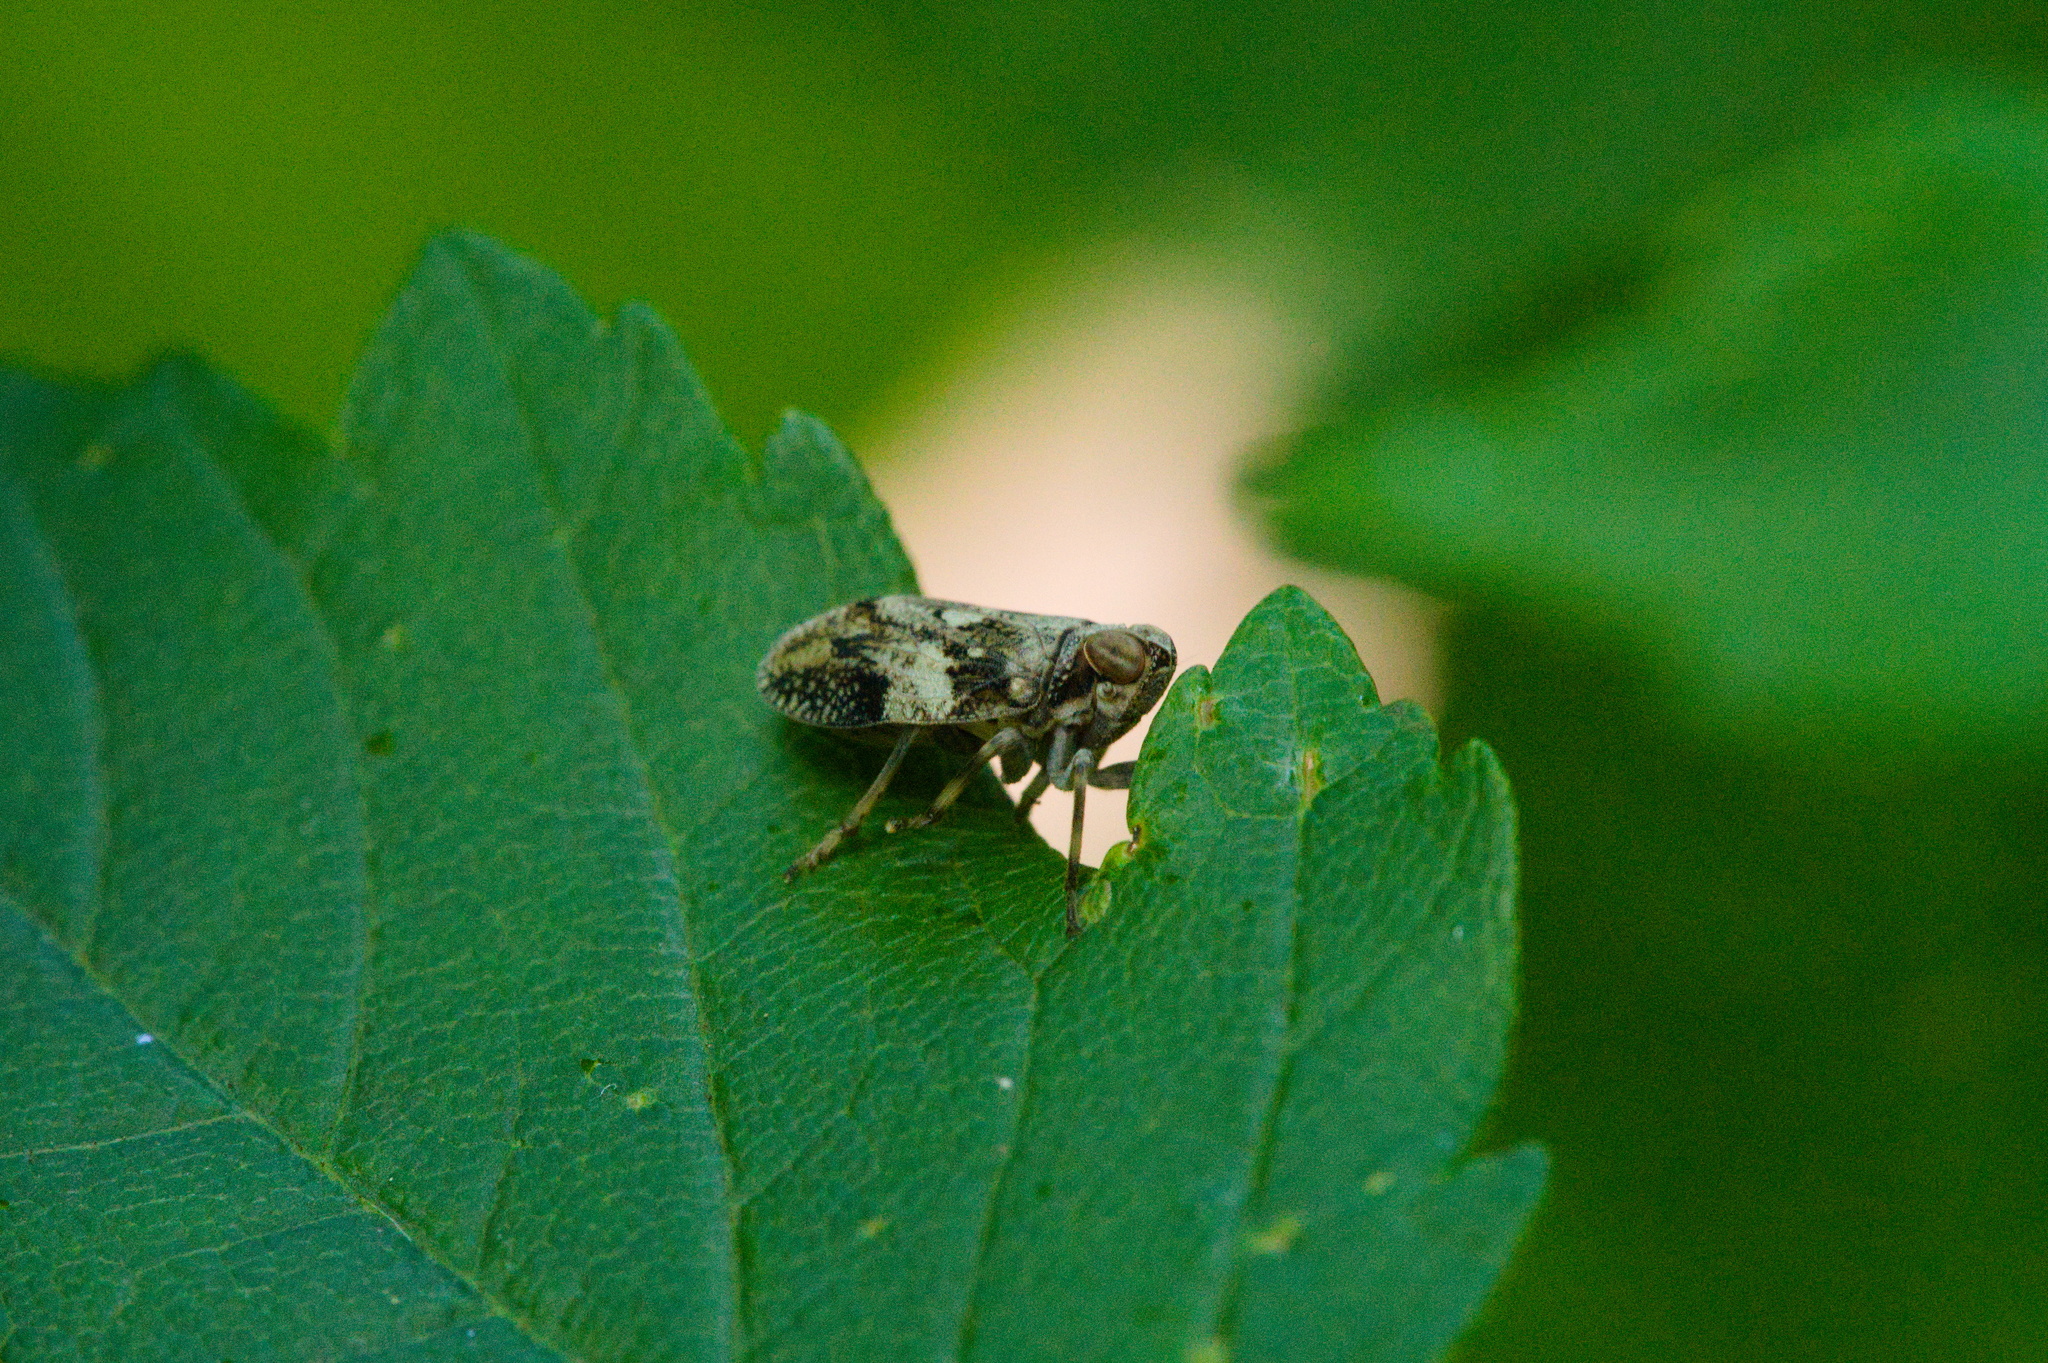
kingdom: Animalia
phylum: Arthropoda
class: Insecta
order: Hemiptera
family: Issidae
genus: Issus
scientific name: Issus coleoptratus
